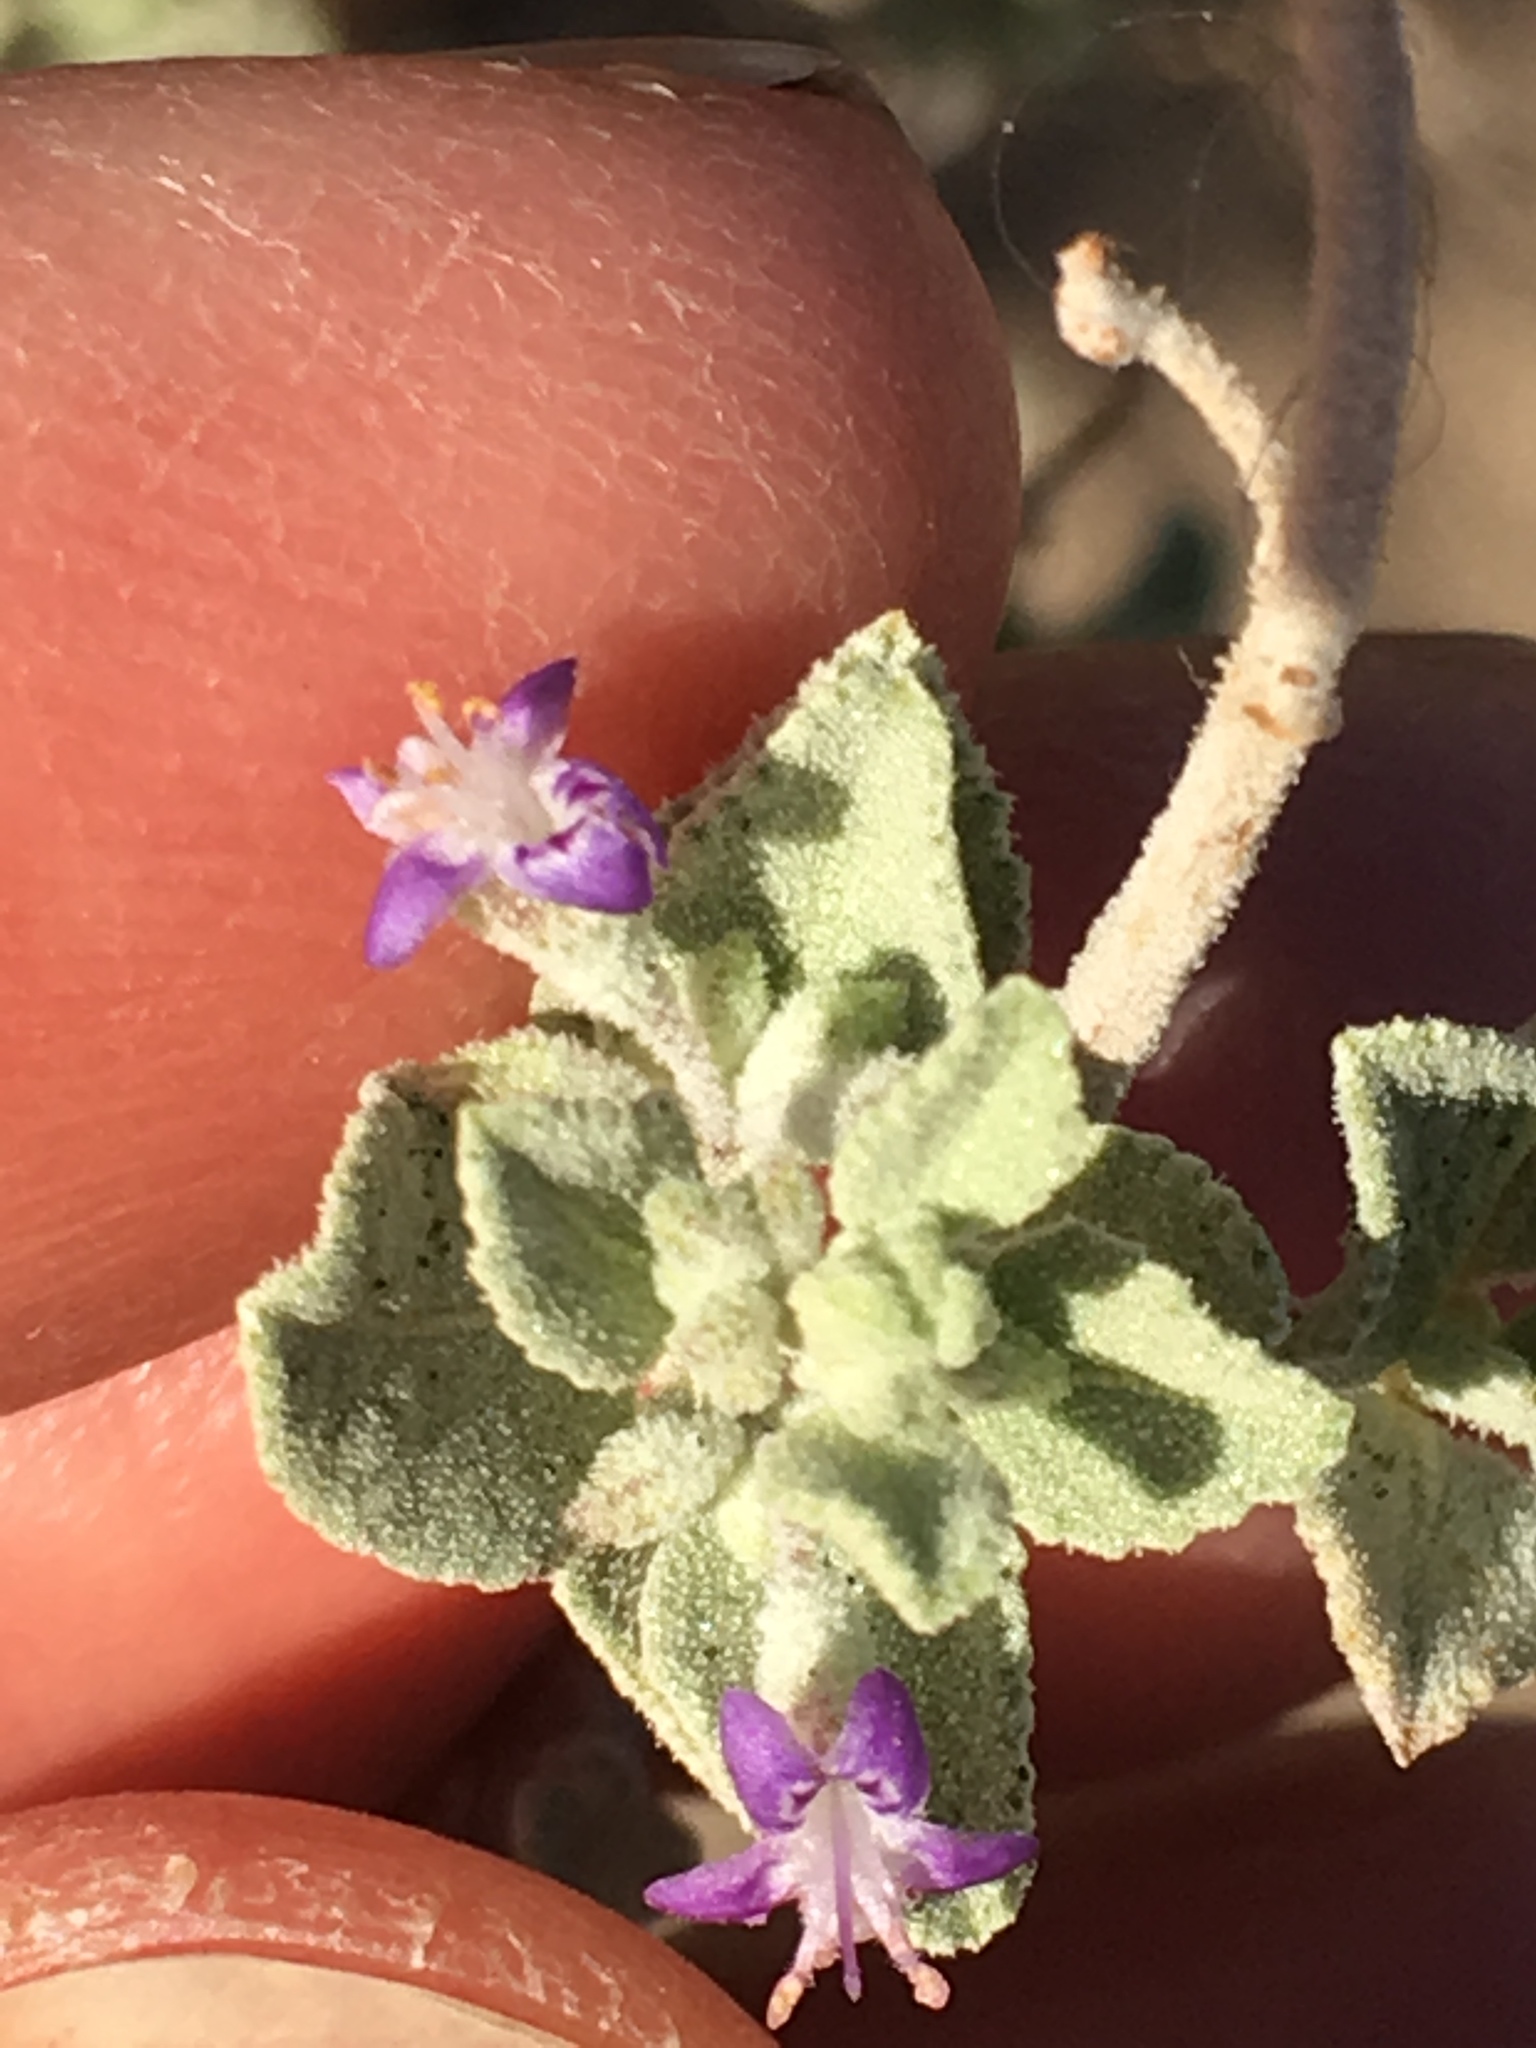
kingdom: Plantae
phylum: Tracheophyta
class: Magnoliopsida
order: Lamiales
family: Lamiaceae
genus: Condea
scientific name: Condea emoryi
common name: Chia
